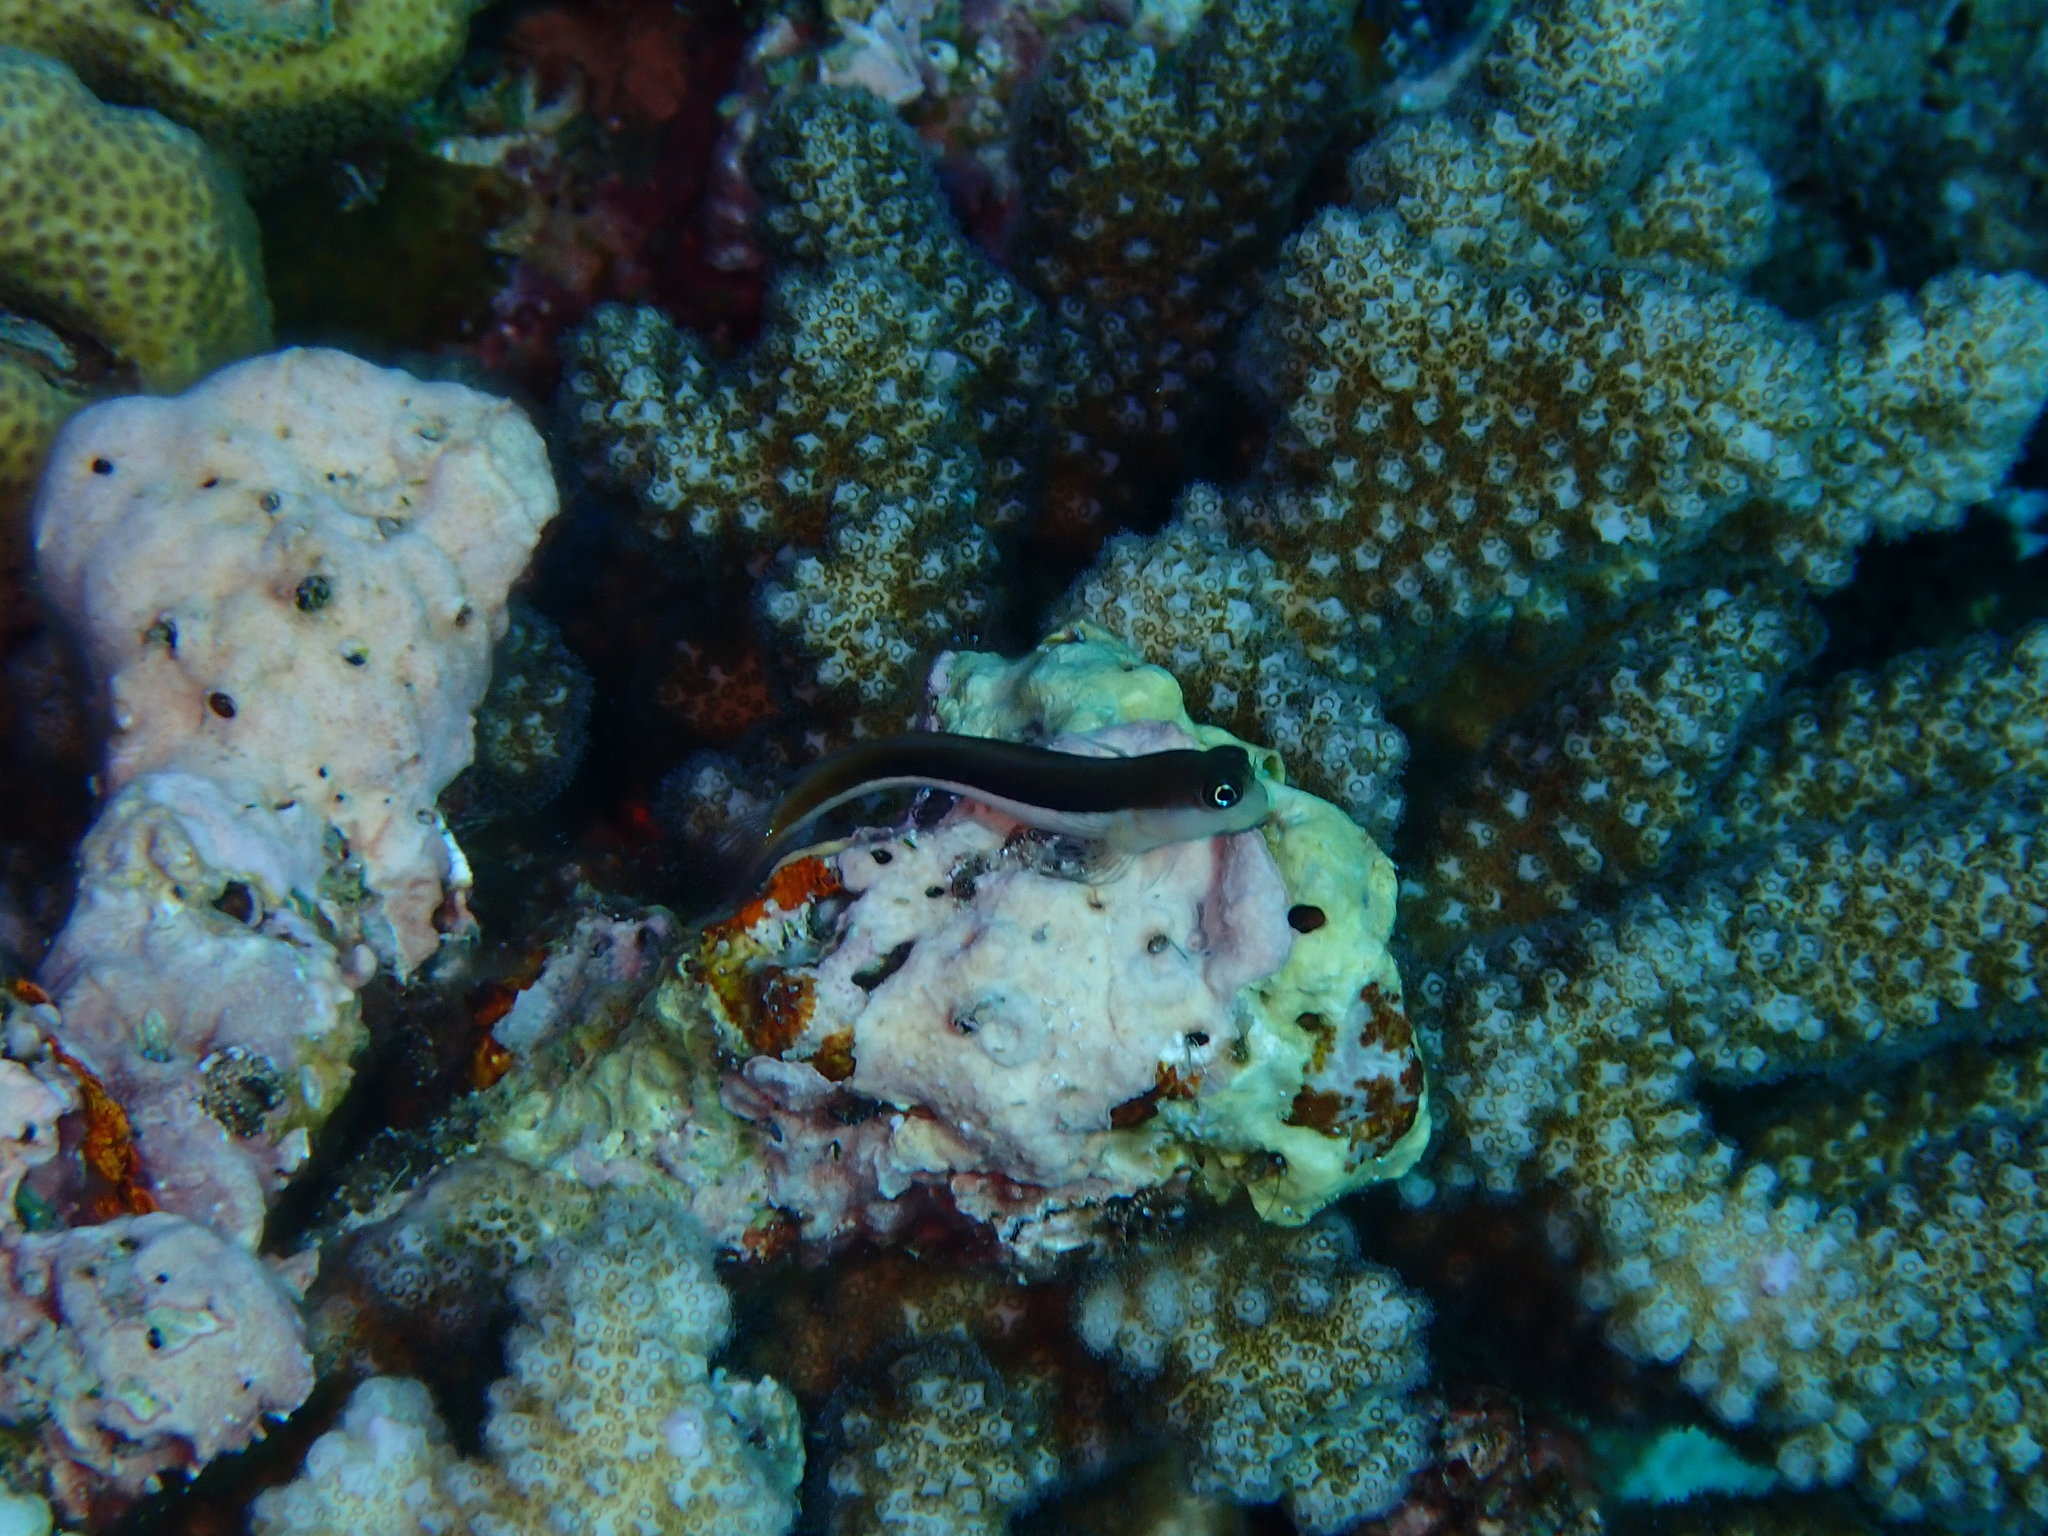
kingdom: Animalia
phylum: Chordata
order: Perciformes
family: Blenniidae
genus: Ecsenius
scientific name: Ecsenius bicolor
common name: Bicolor blenny
